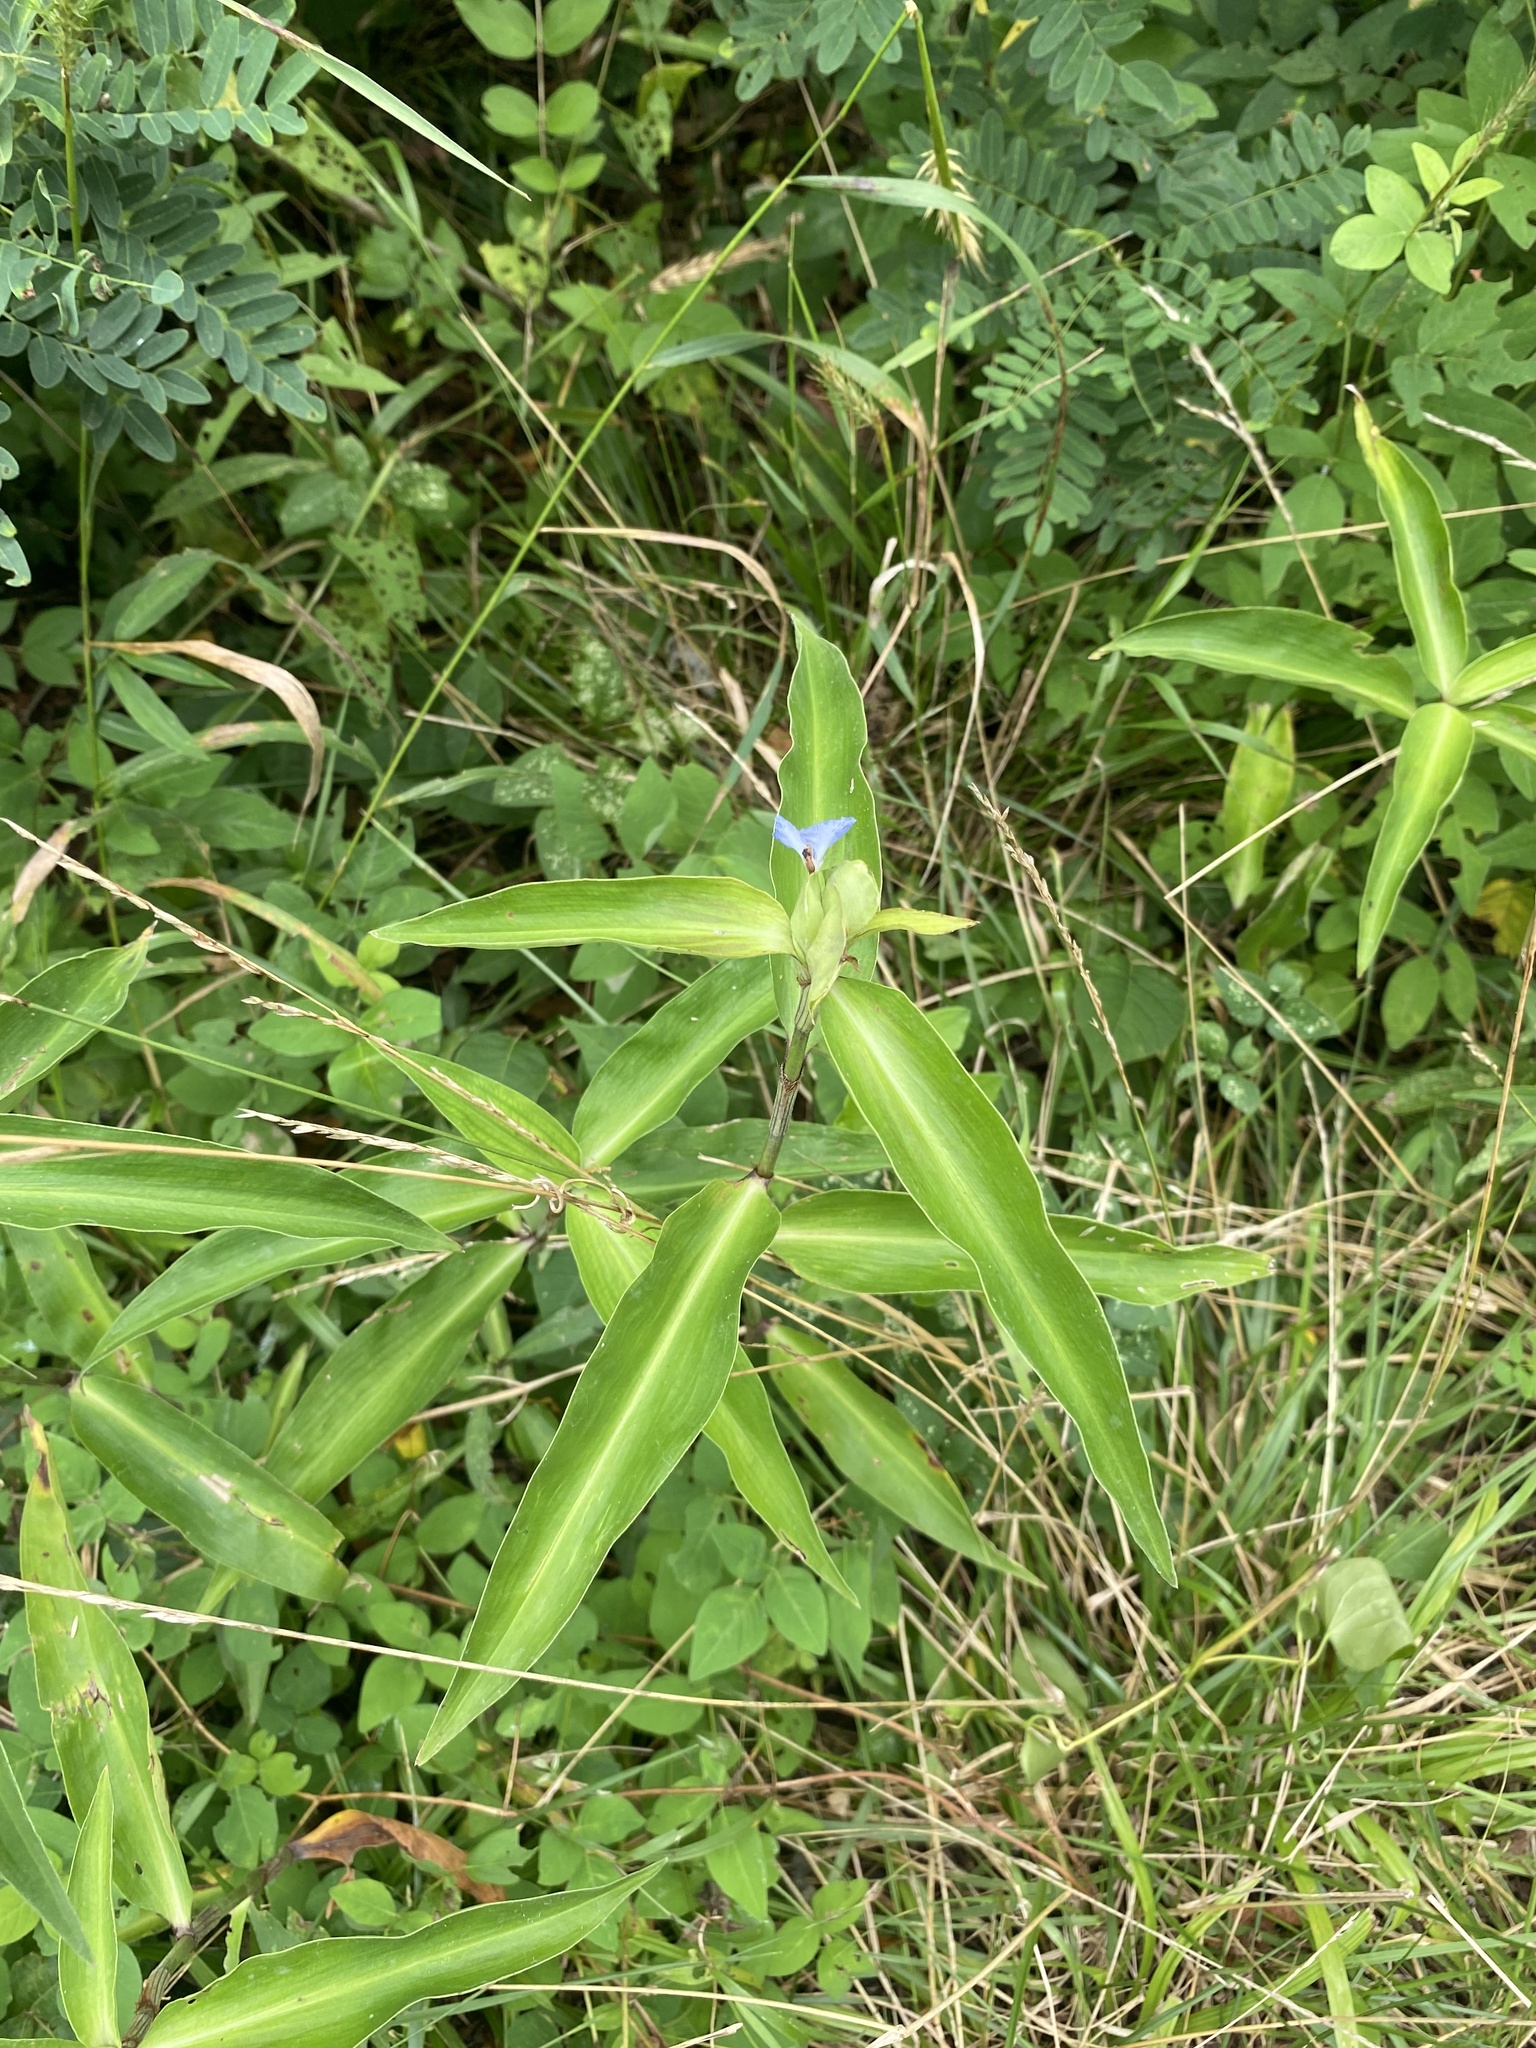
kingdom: Plantae
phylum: Tracheophyta
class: Liliopsida
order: Commelinales
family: Commelinaceae
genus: Commelina
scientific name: Commelina virginica
